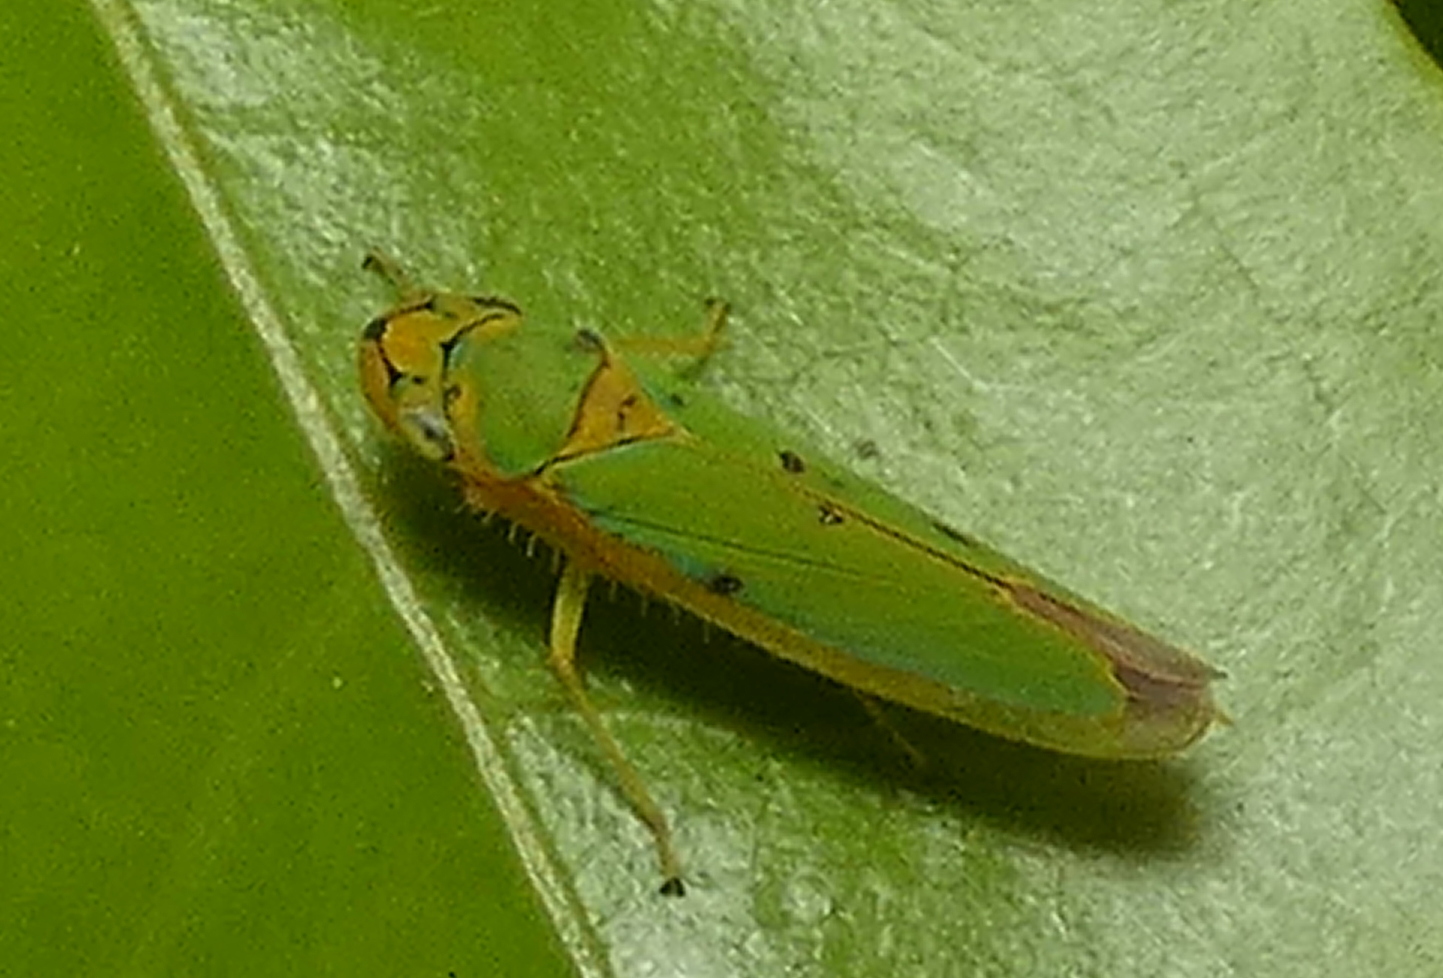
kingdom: Animalia
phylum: Arthropoda
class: Insecta
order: Hemiptera
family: Cicadellidae
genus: Catagonalia
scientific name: Catagonalia conjunctula
